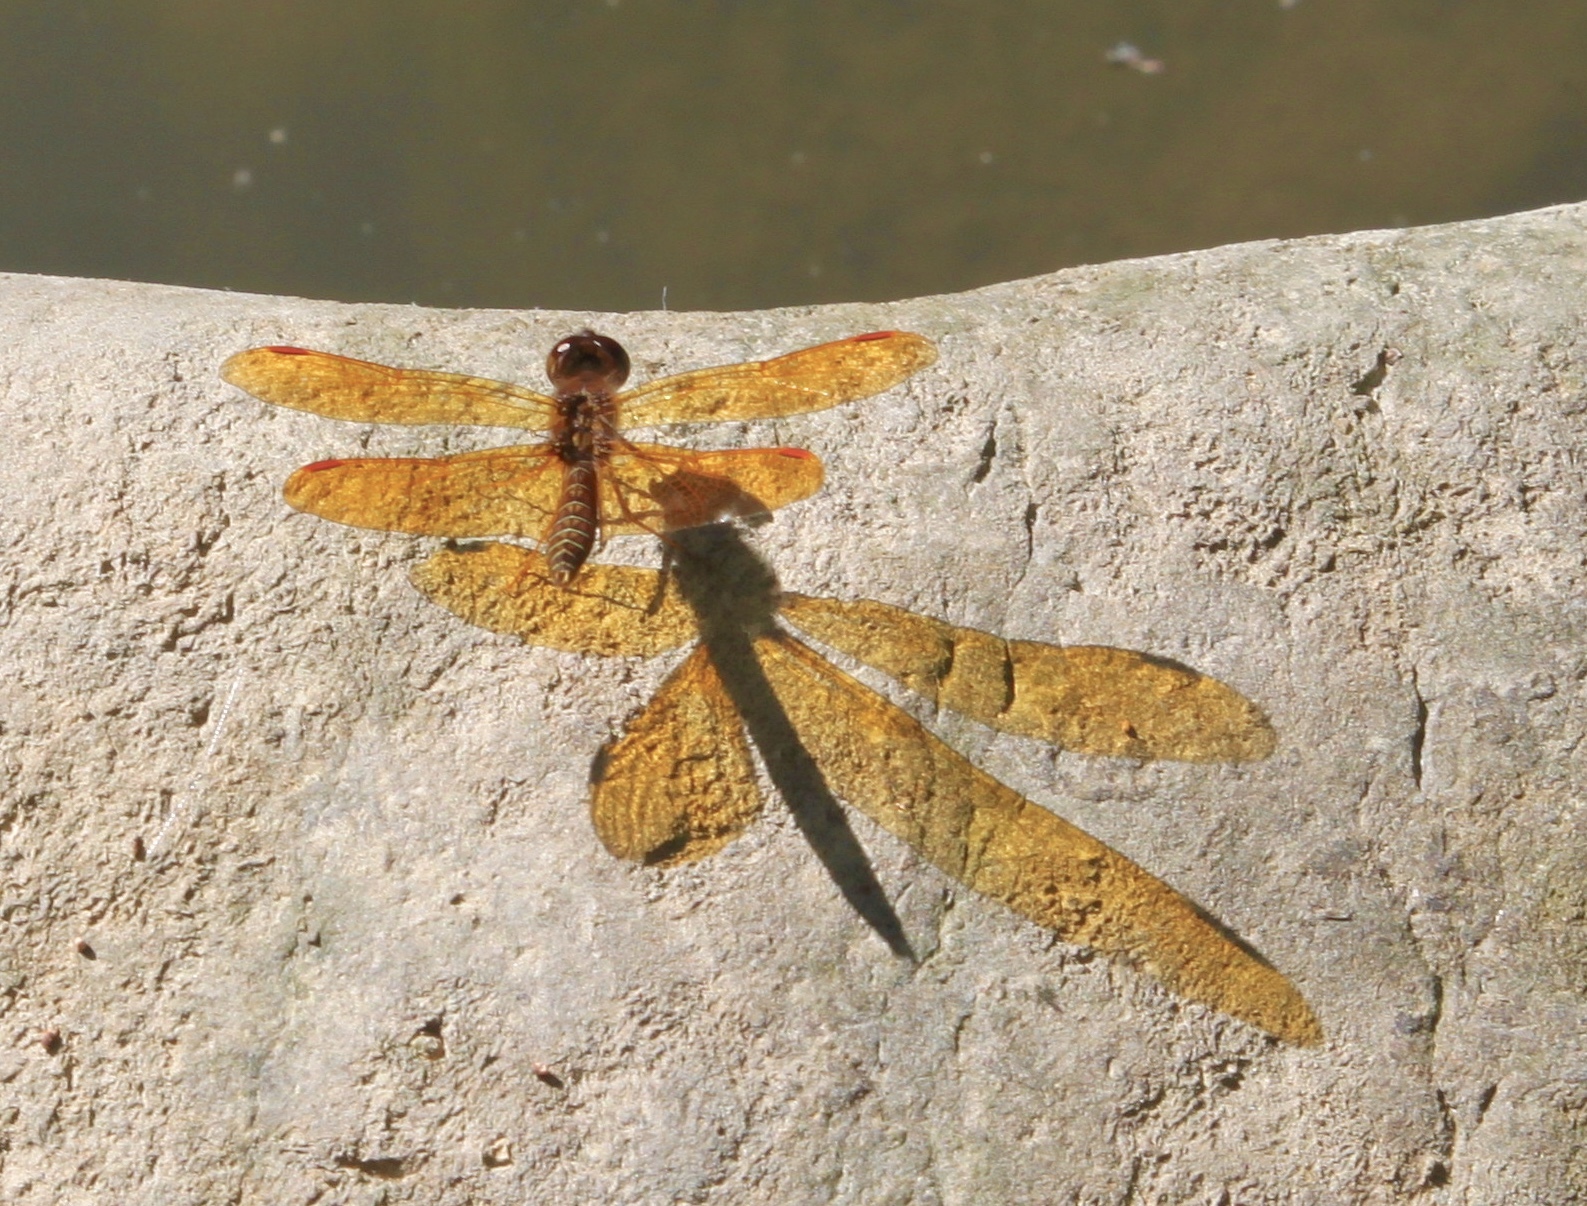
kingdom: Animalia
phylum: Arthropoda
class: Insecta
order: Odonata
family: Libellulidae
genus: Perithemis
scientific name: Perithemis tenera
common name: Eastern amberwing
